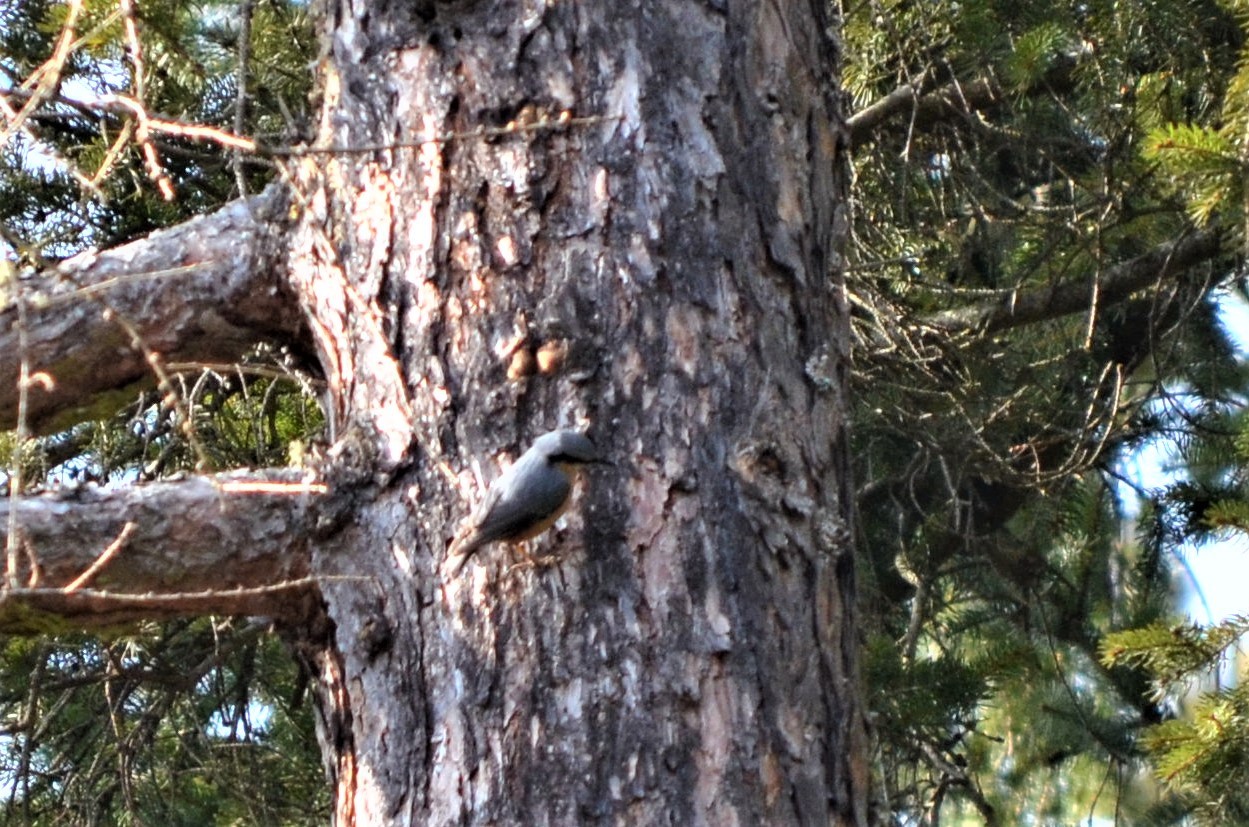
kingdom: Animalia
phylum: Chordata
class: Aves
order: Passeriformes
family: Sittidae
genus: Sitta
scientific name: Sitta europaea
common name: Eurasian nuthatch
